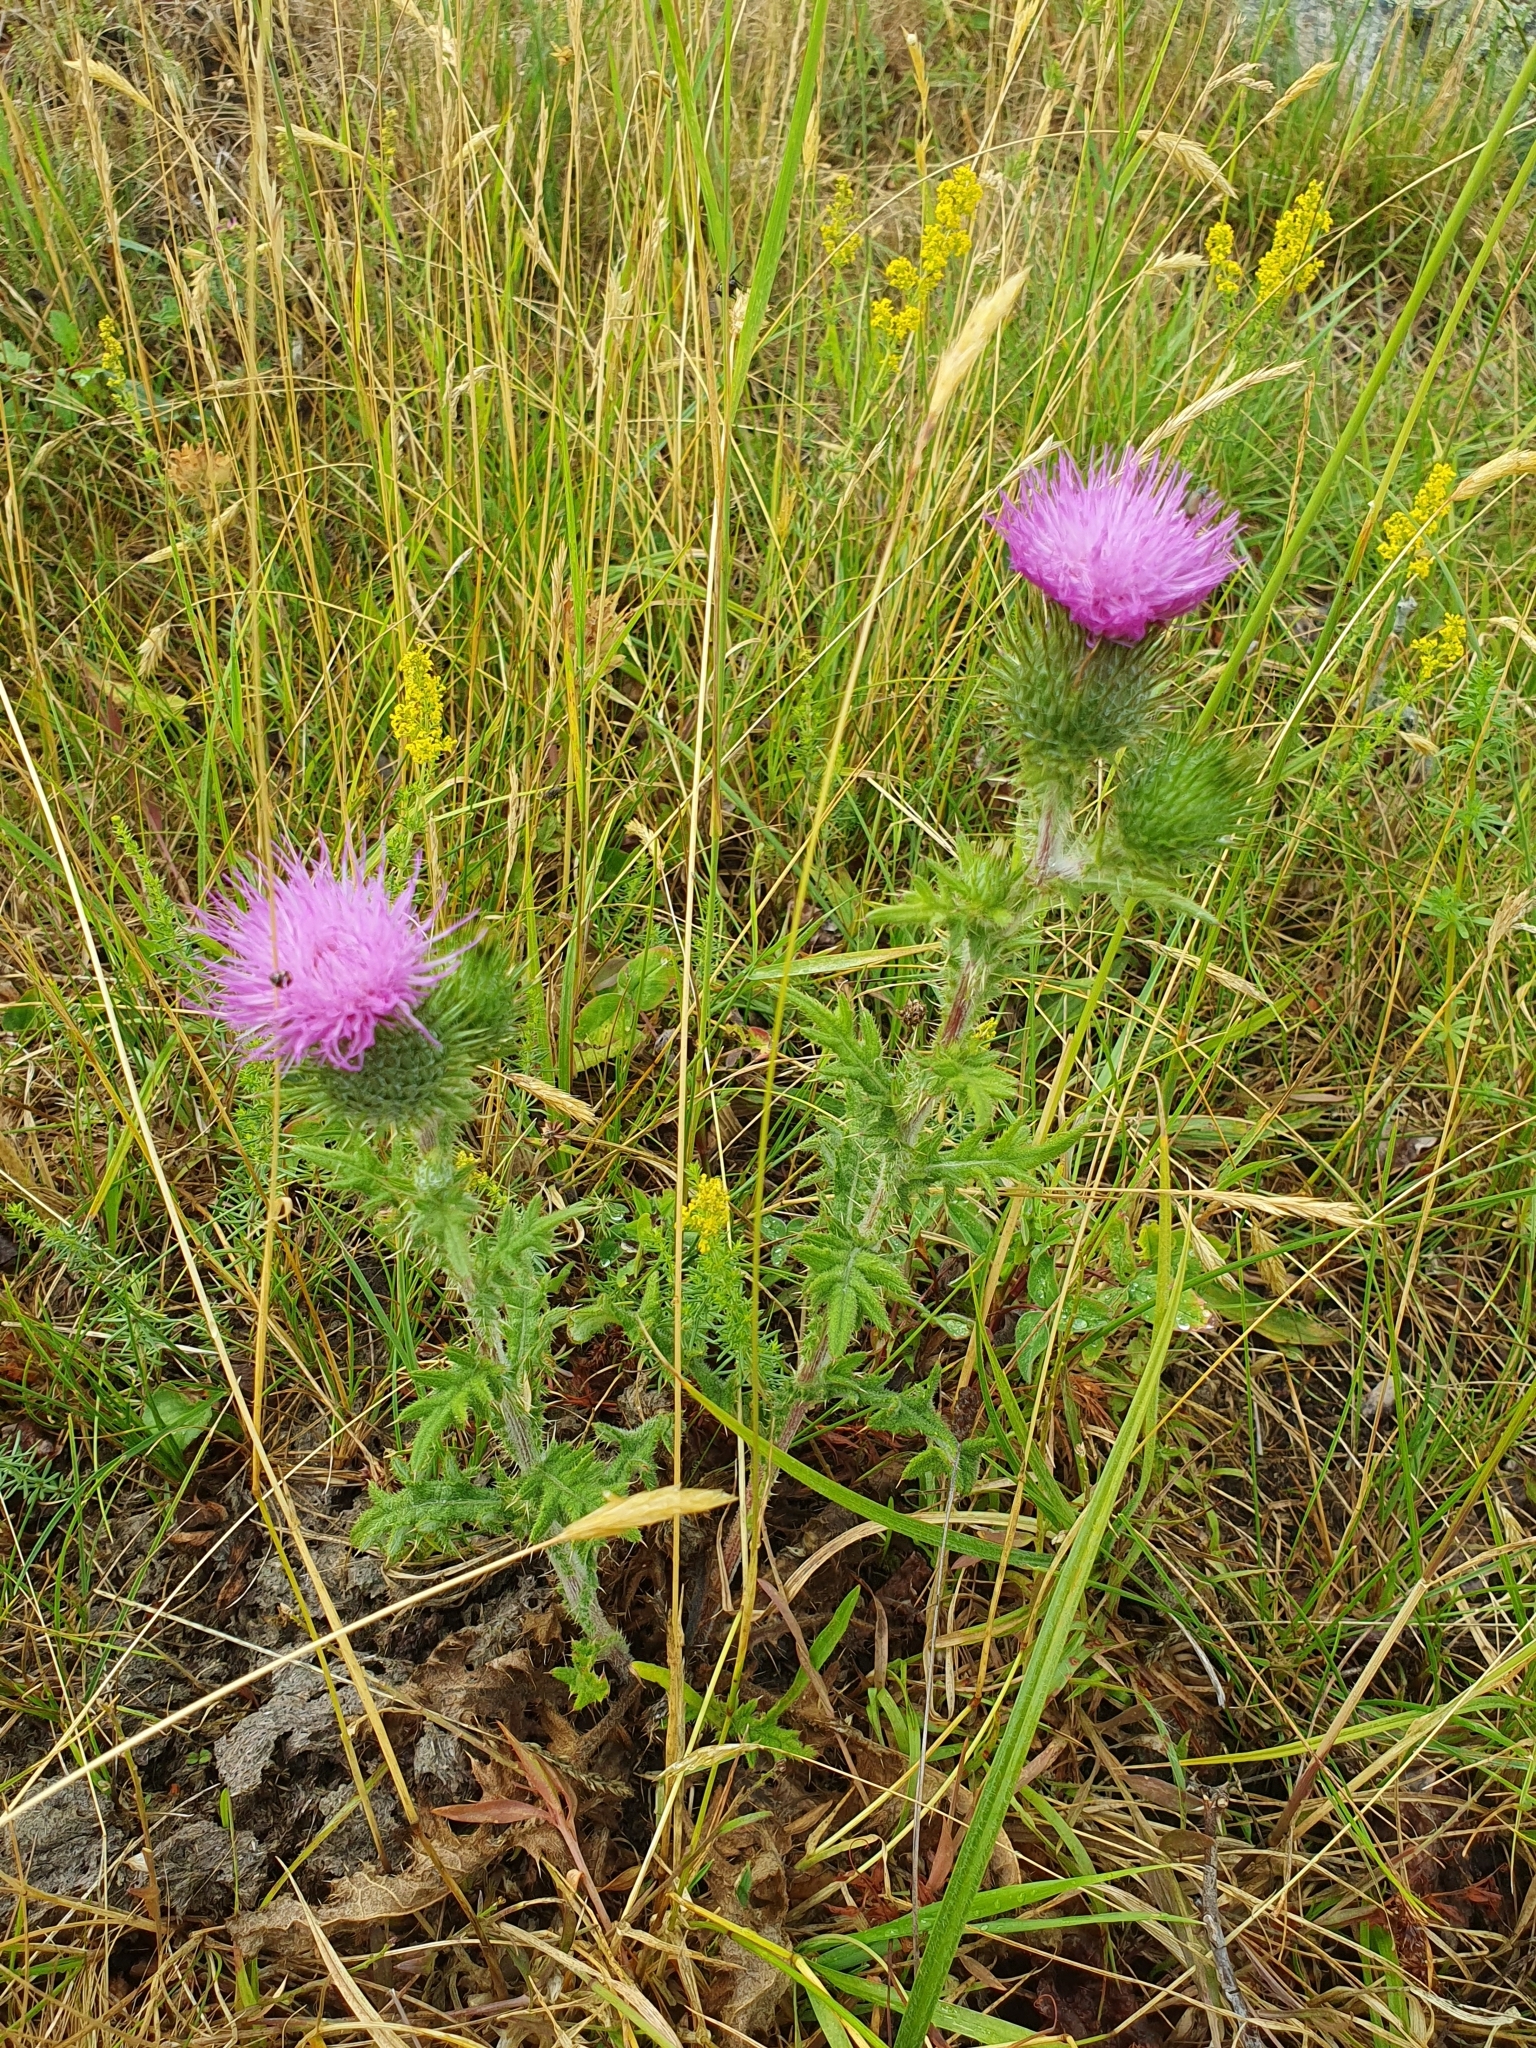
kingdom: Plantae
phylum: Tracheophyta
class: Magnoliopsida
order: Asterales
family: Asteraceae
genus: Cirsium
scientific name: Cirsium vulgare
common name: Bull thistle
